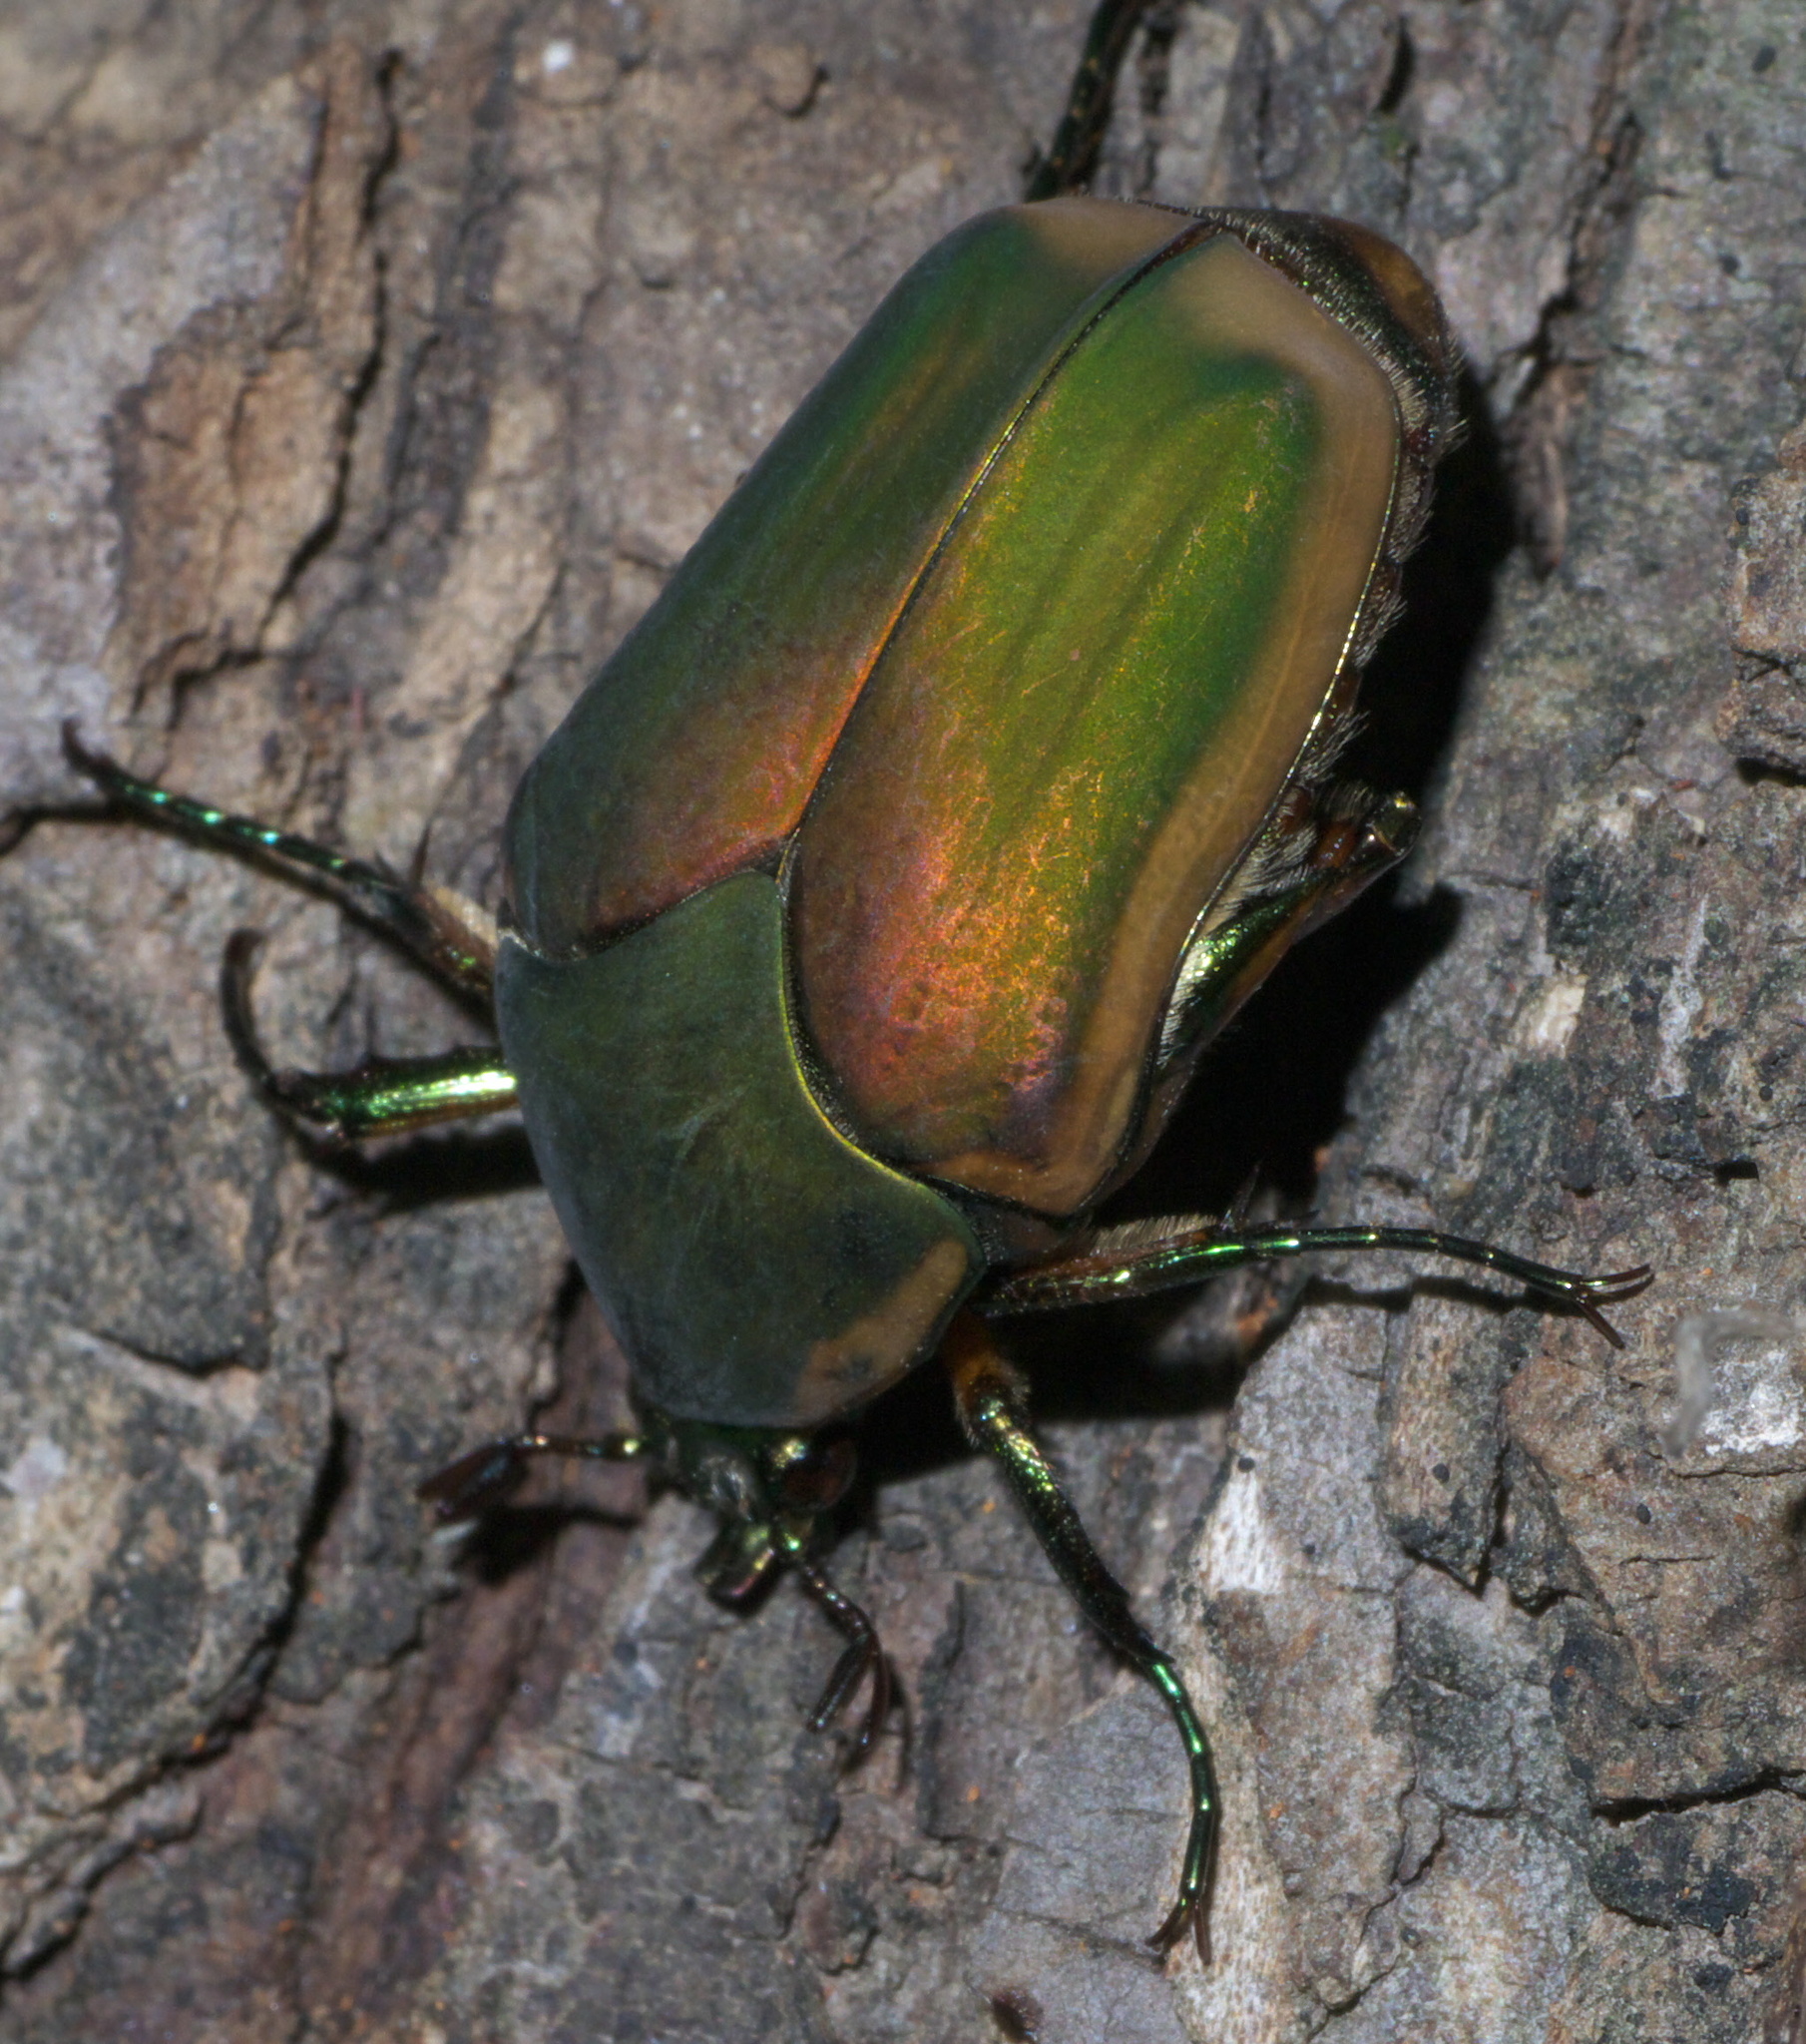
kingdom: Animalia
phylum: Arthropoda
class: Insecta
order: Coleoptera
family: Scarabaeidae
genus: Cotinis
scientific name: Cotinis nitida
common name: Common green june beetle
